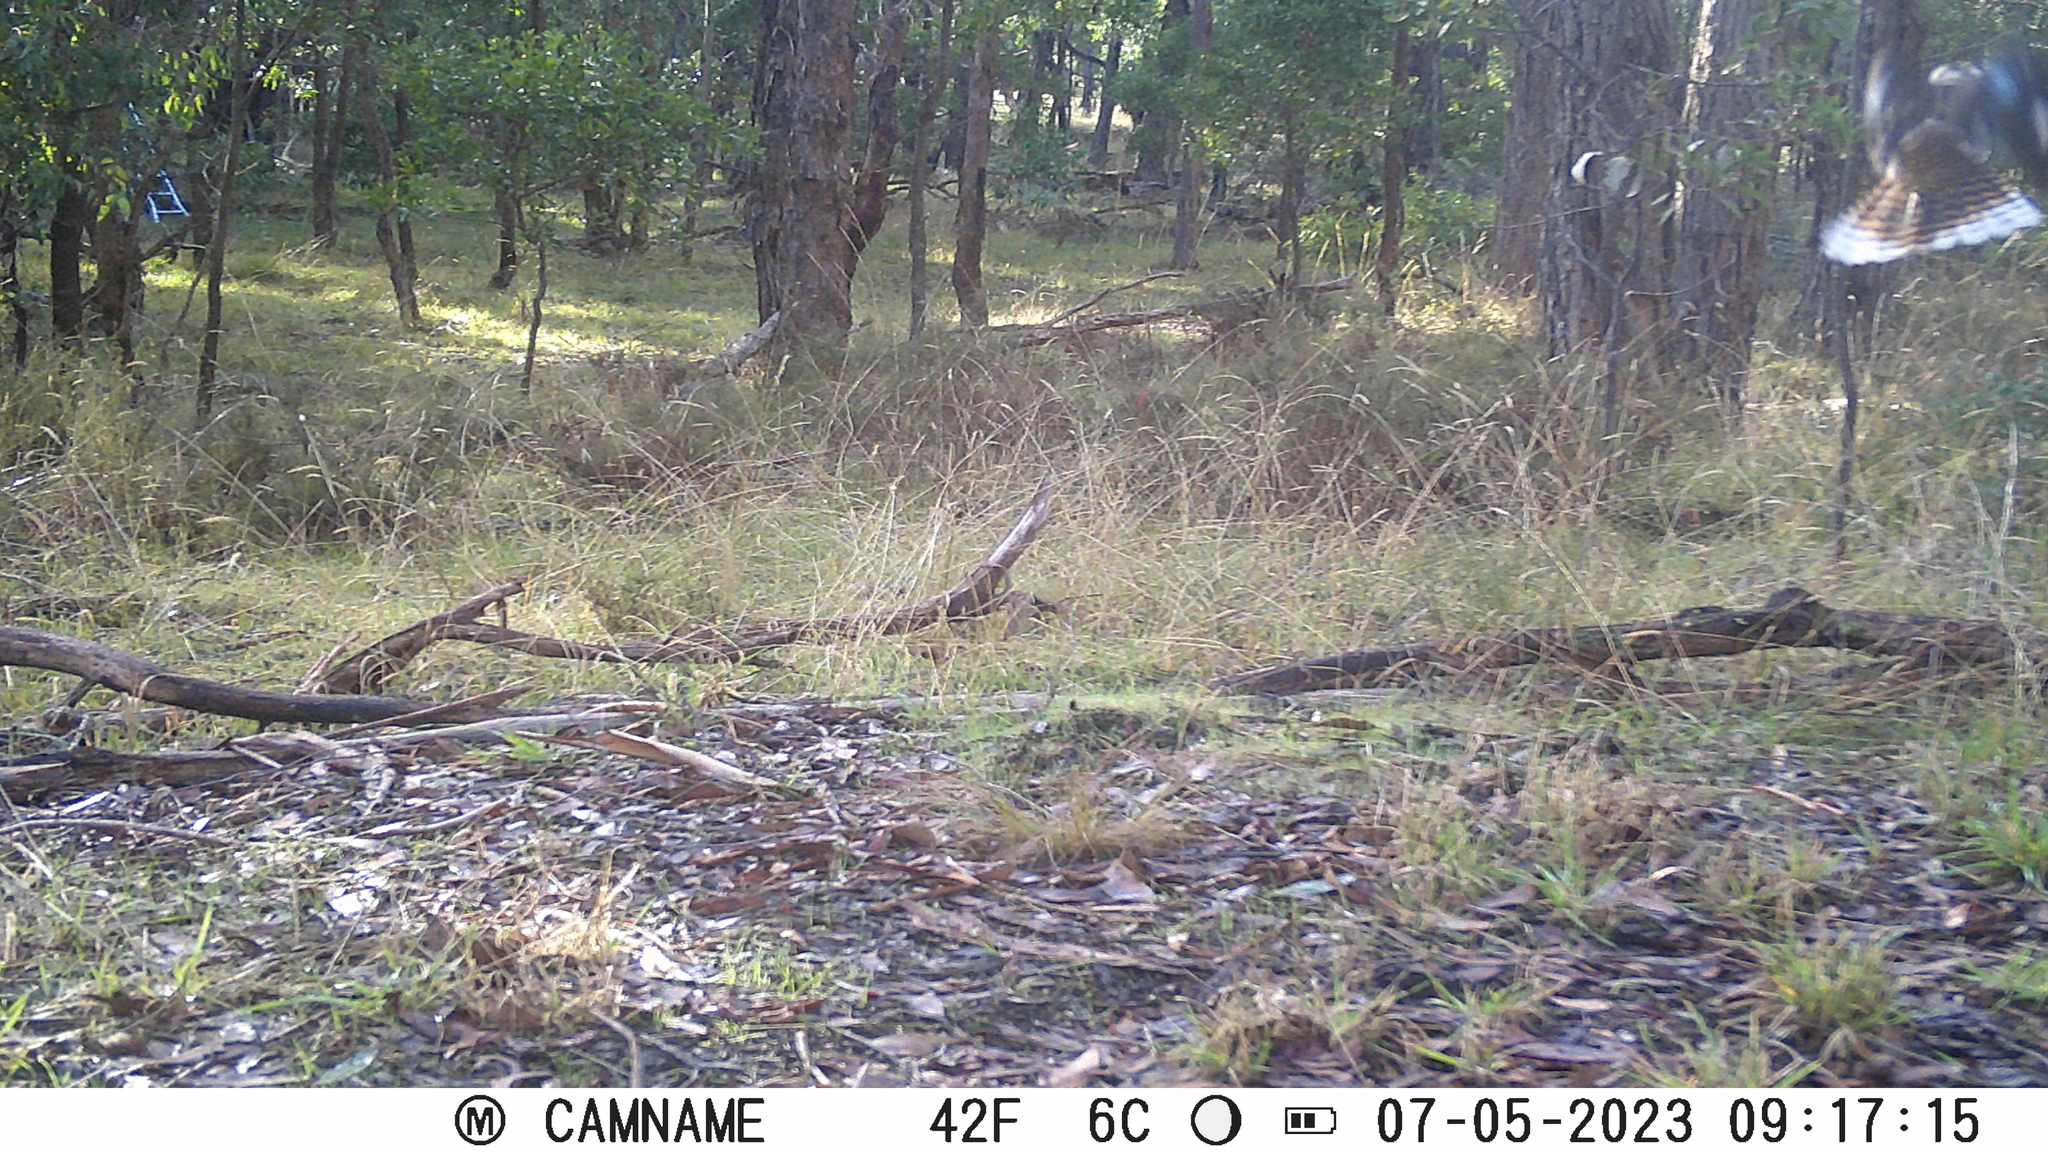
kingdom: Animalia
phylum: Chordata
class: Aves
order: Coraciiformes
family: Alcedinidae
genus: Dacelo
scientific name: Dacelo novaeguineae
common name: Laughing kookaburra
